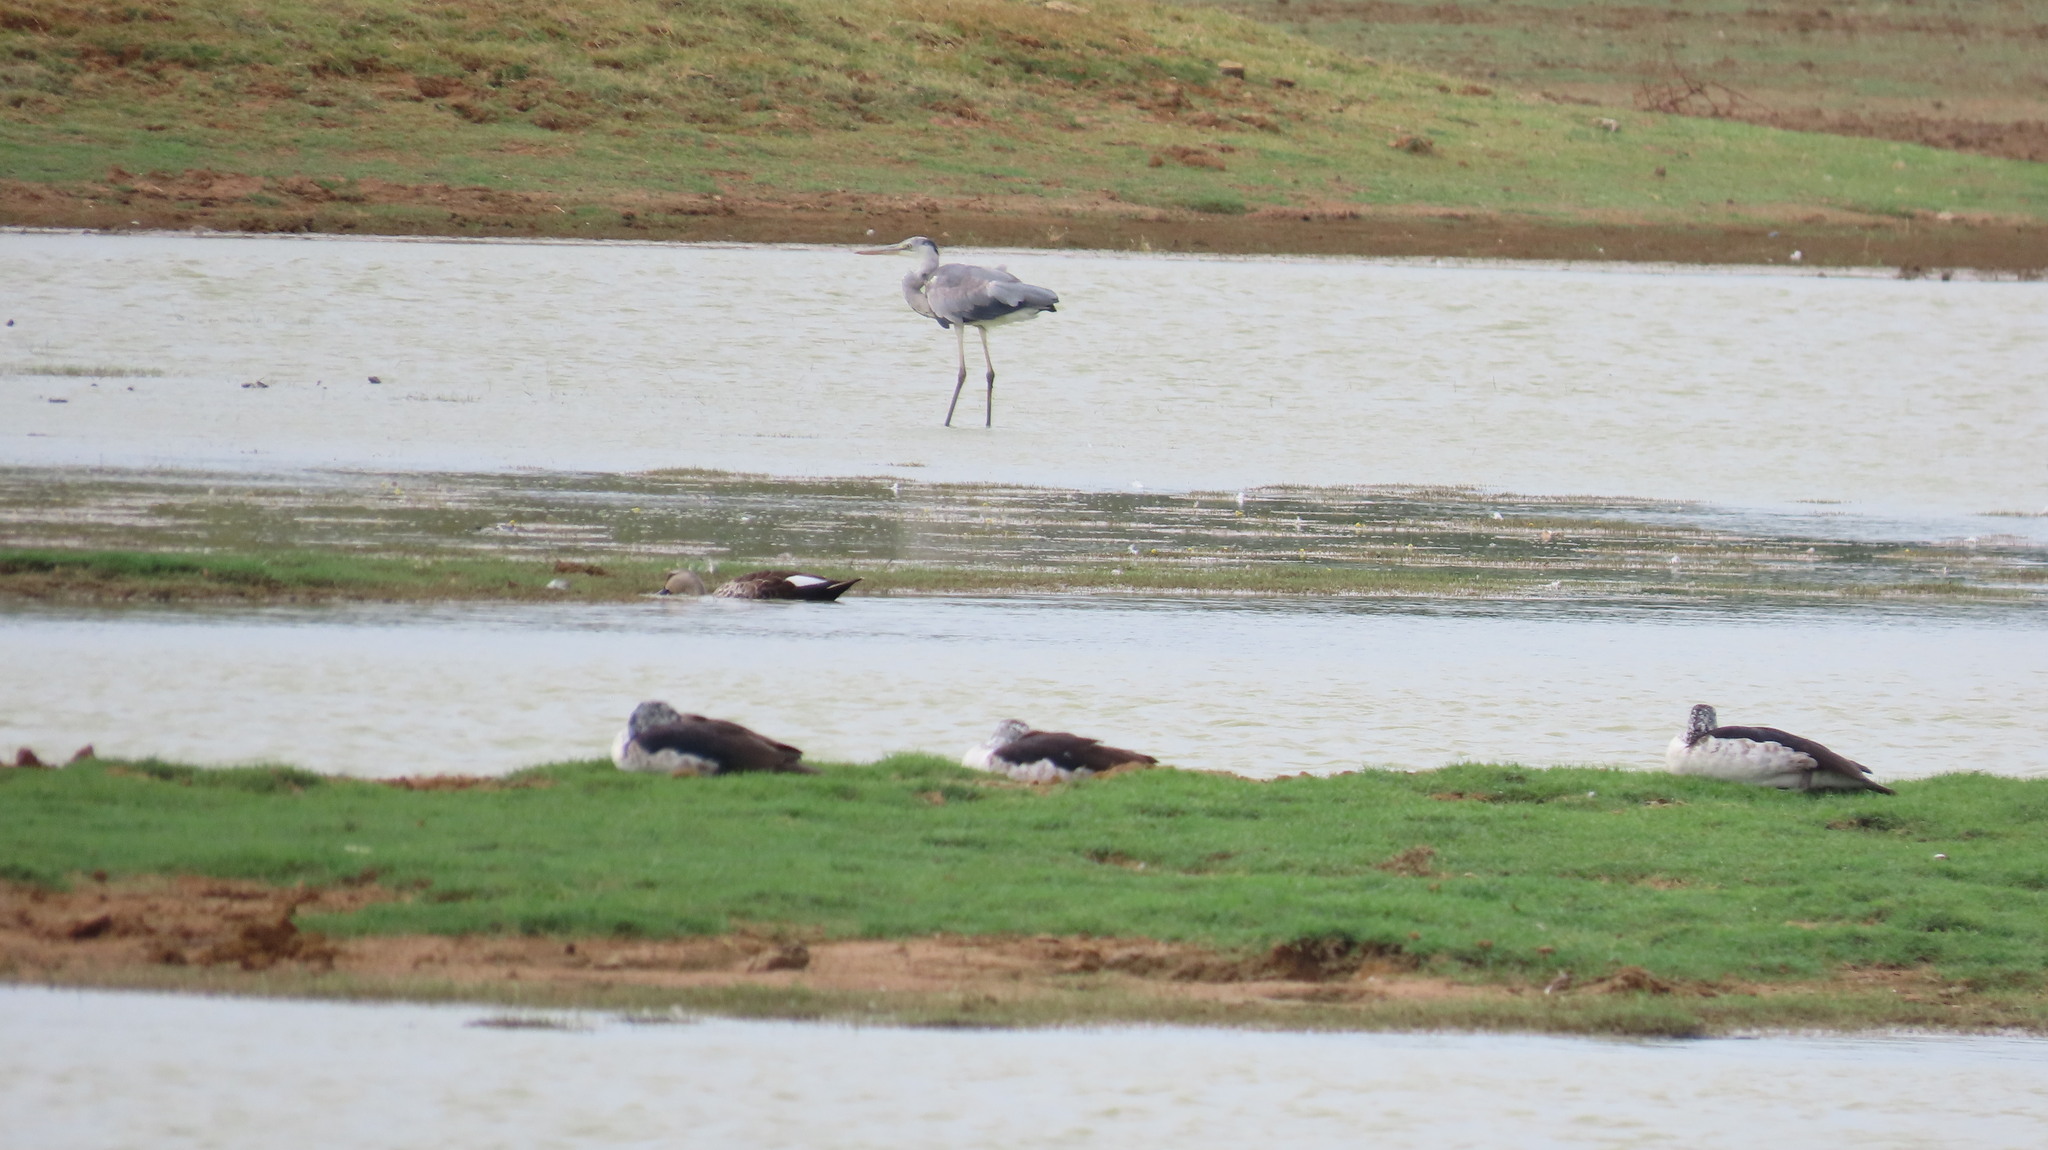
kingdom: Animalia
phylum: Chordata
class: Aves
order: Pelecaniformes
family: Ardeidae
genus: Ardea
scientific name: Ardea cinerea
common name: Grey heron
